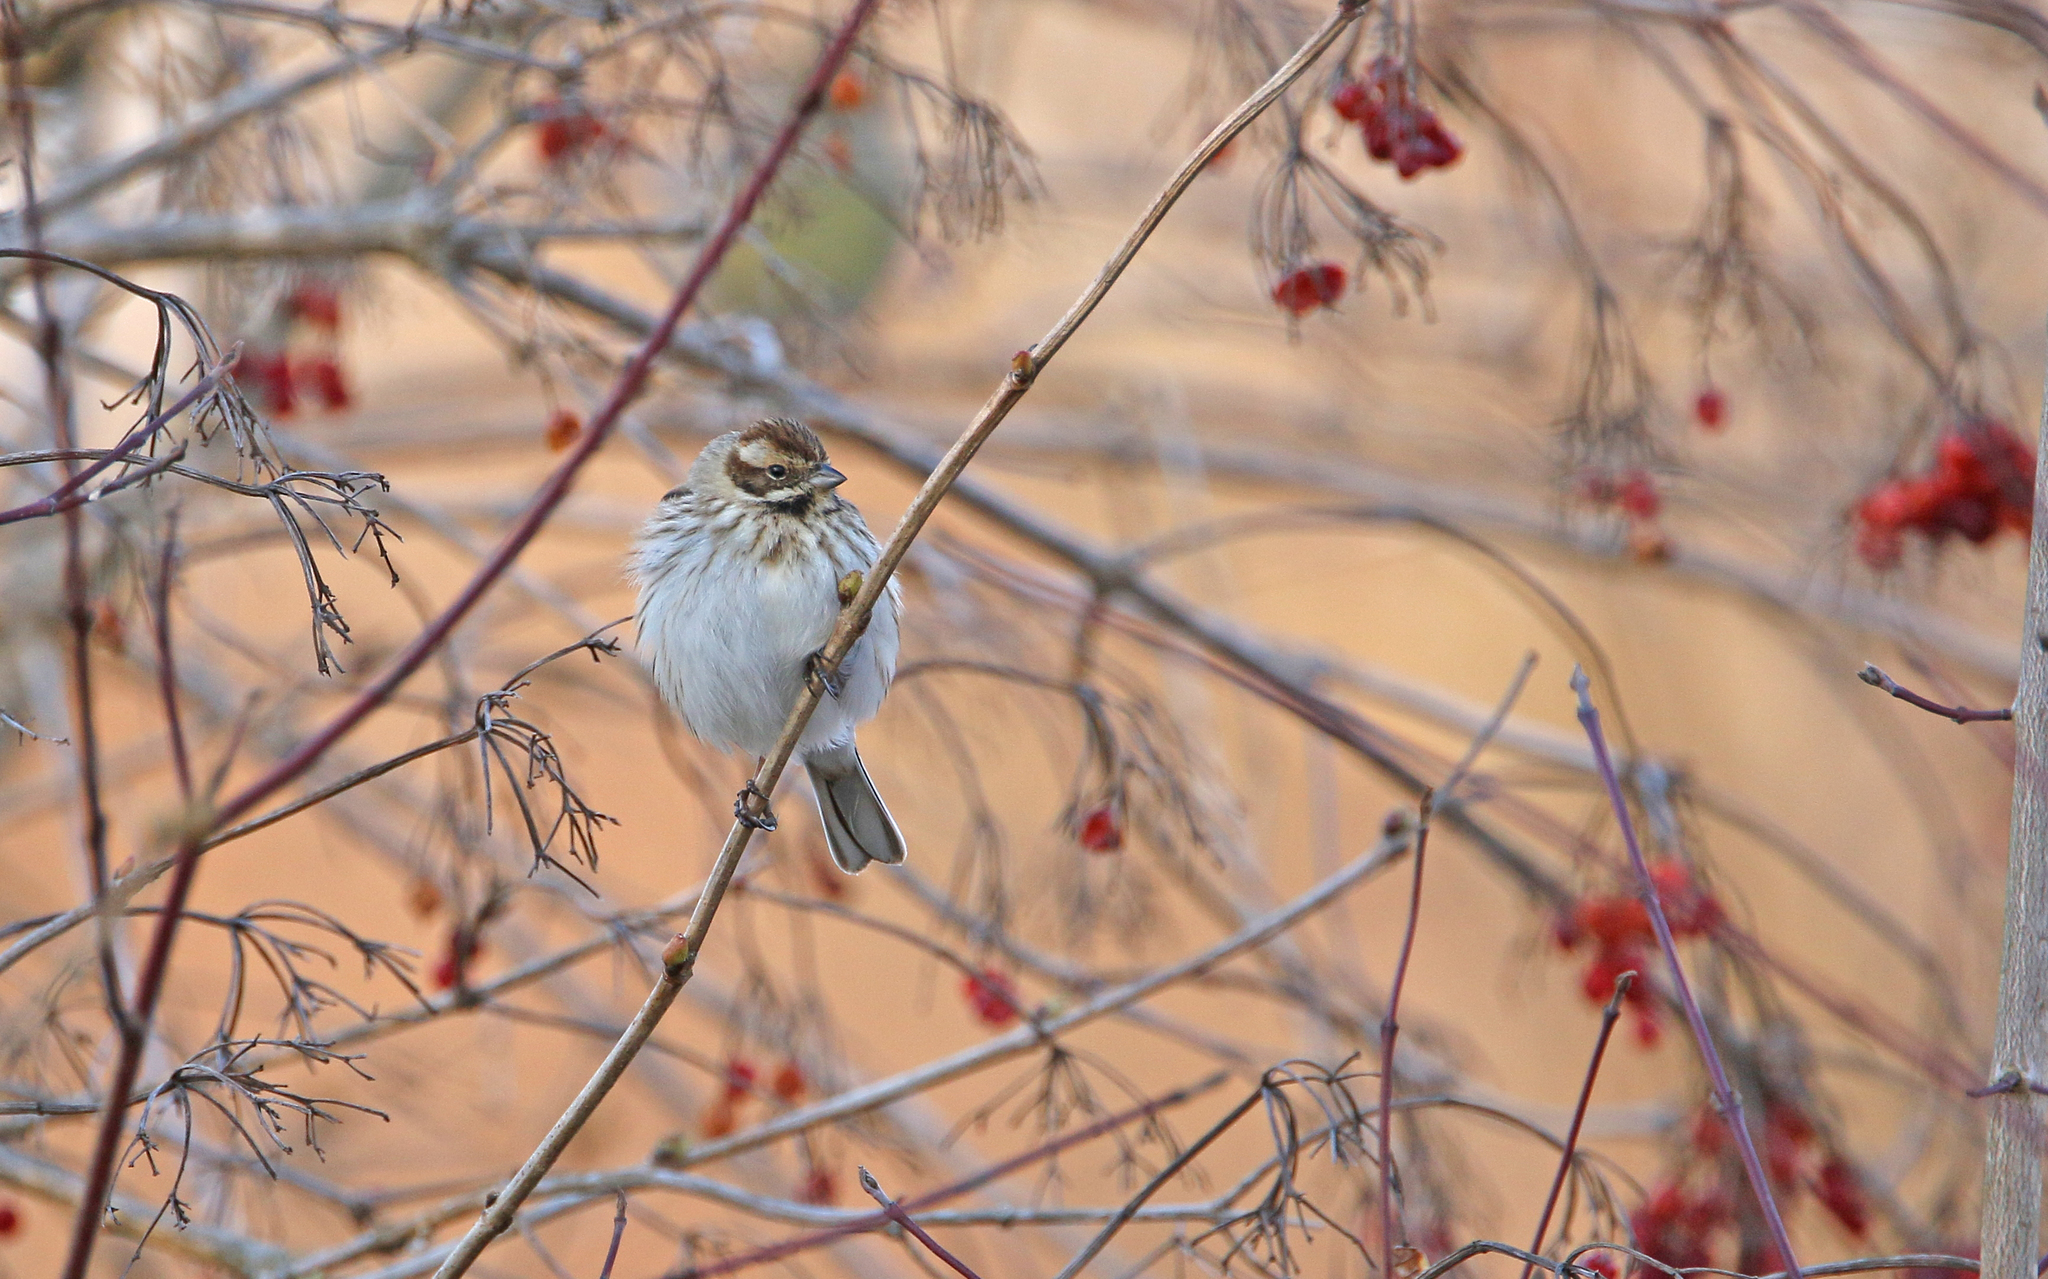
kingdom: Animalia
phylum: Chordata
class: Aves
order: Passeriformes
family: Emberizidae
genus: Emberiza
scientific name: Emberiza schoeniclus
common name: Reed bunting
